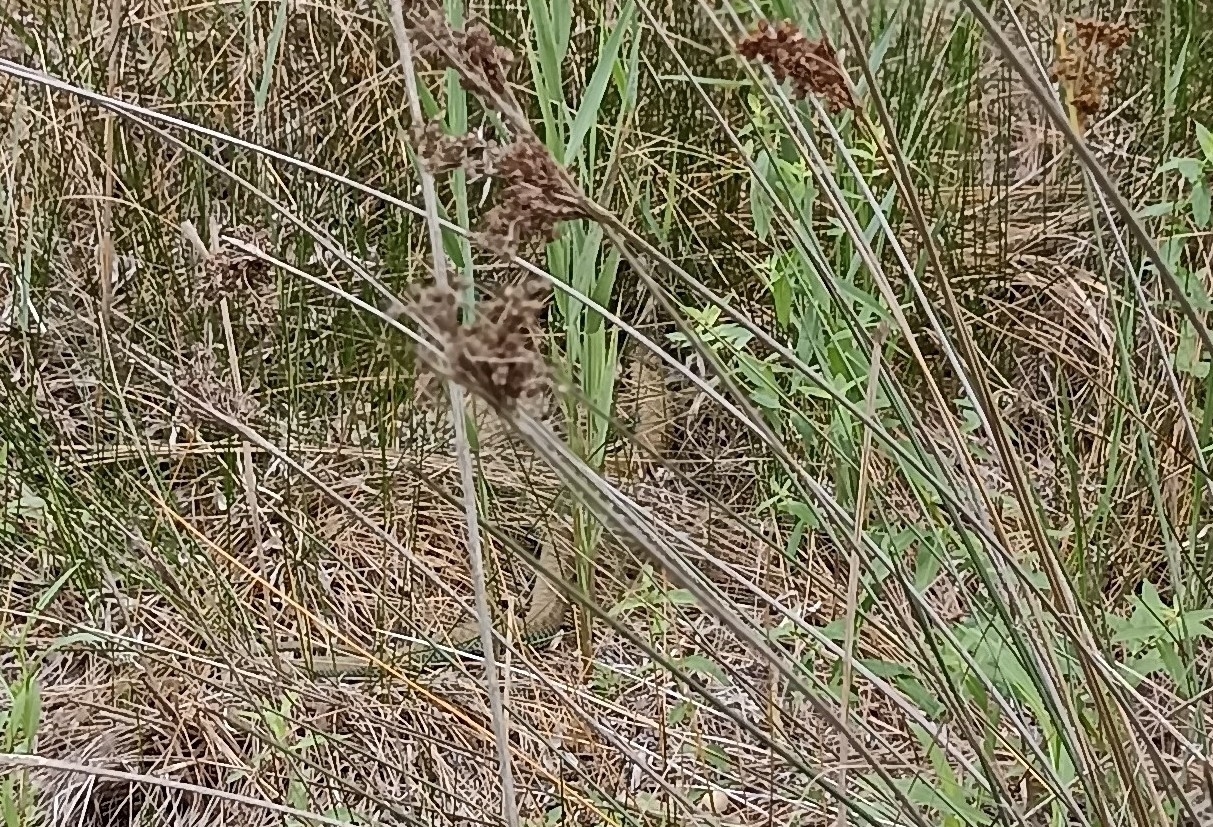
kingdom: Animalia
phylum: Chordata
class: Squamata
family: Psammophiidae
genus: Malpolon
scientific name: Malpolon monspessulanus
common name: Montpellier snake
